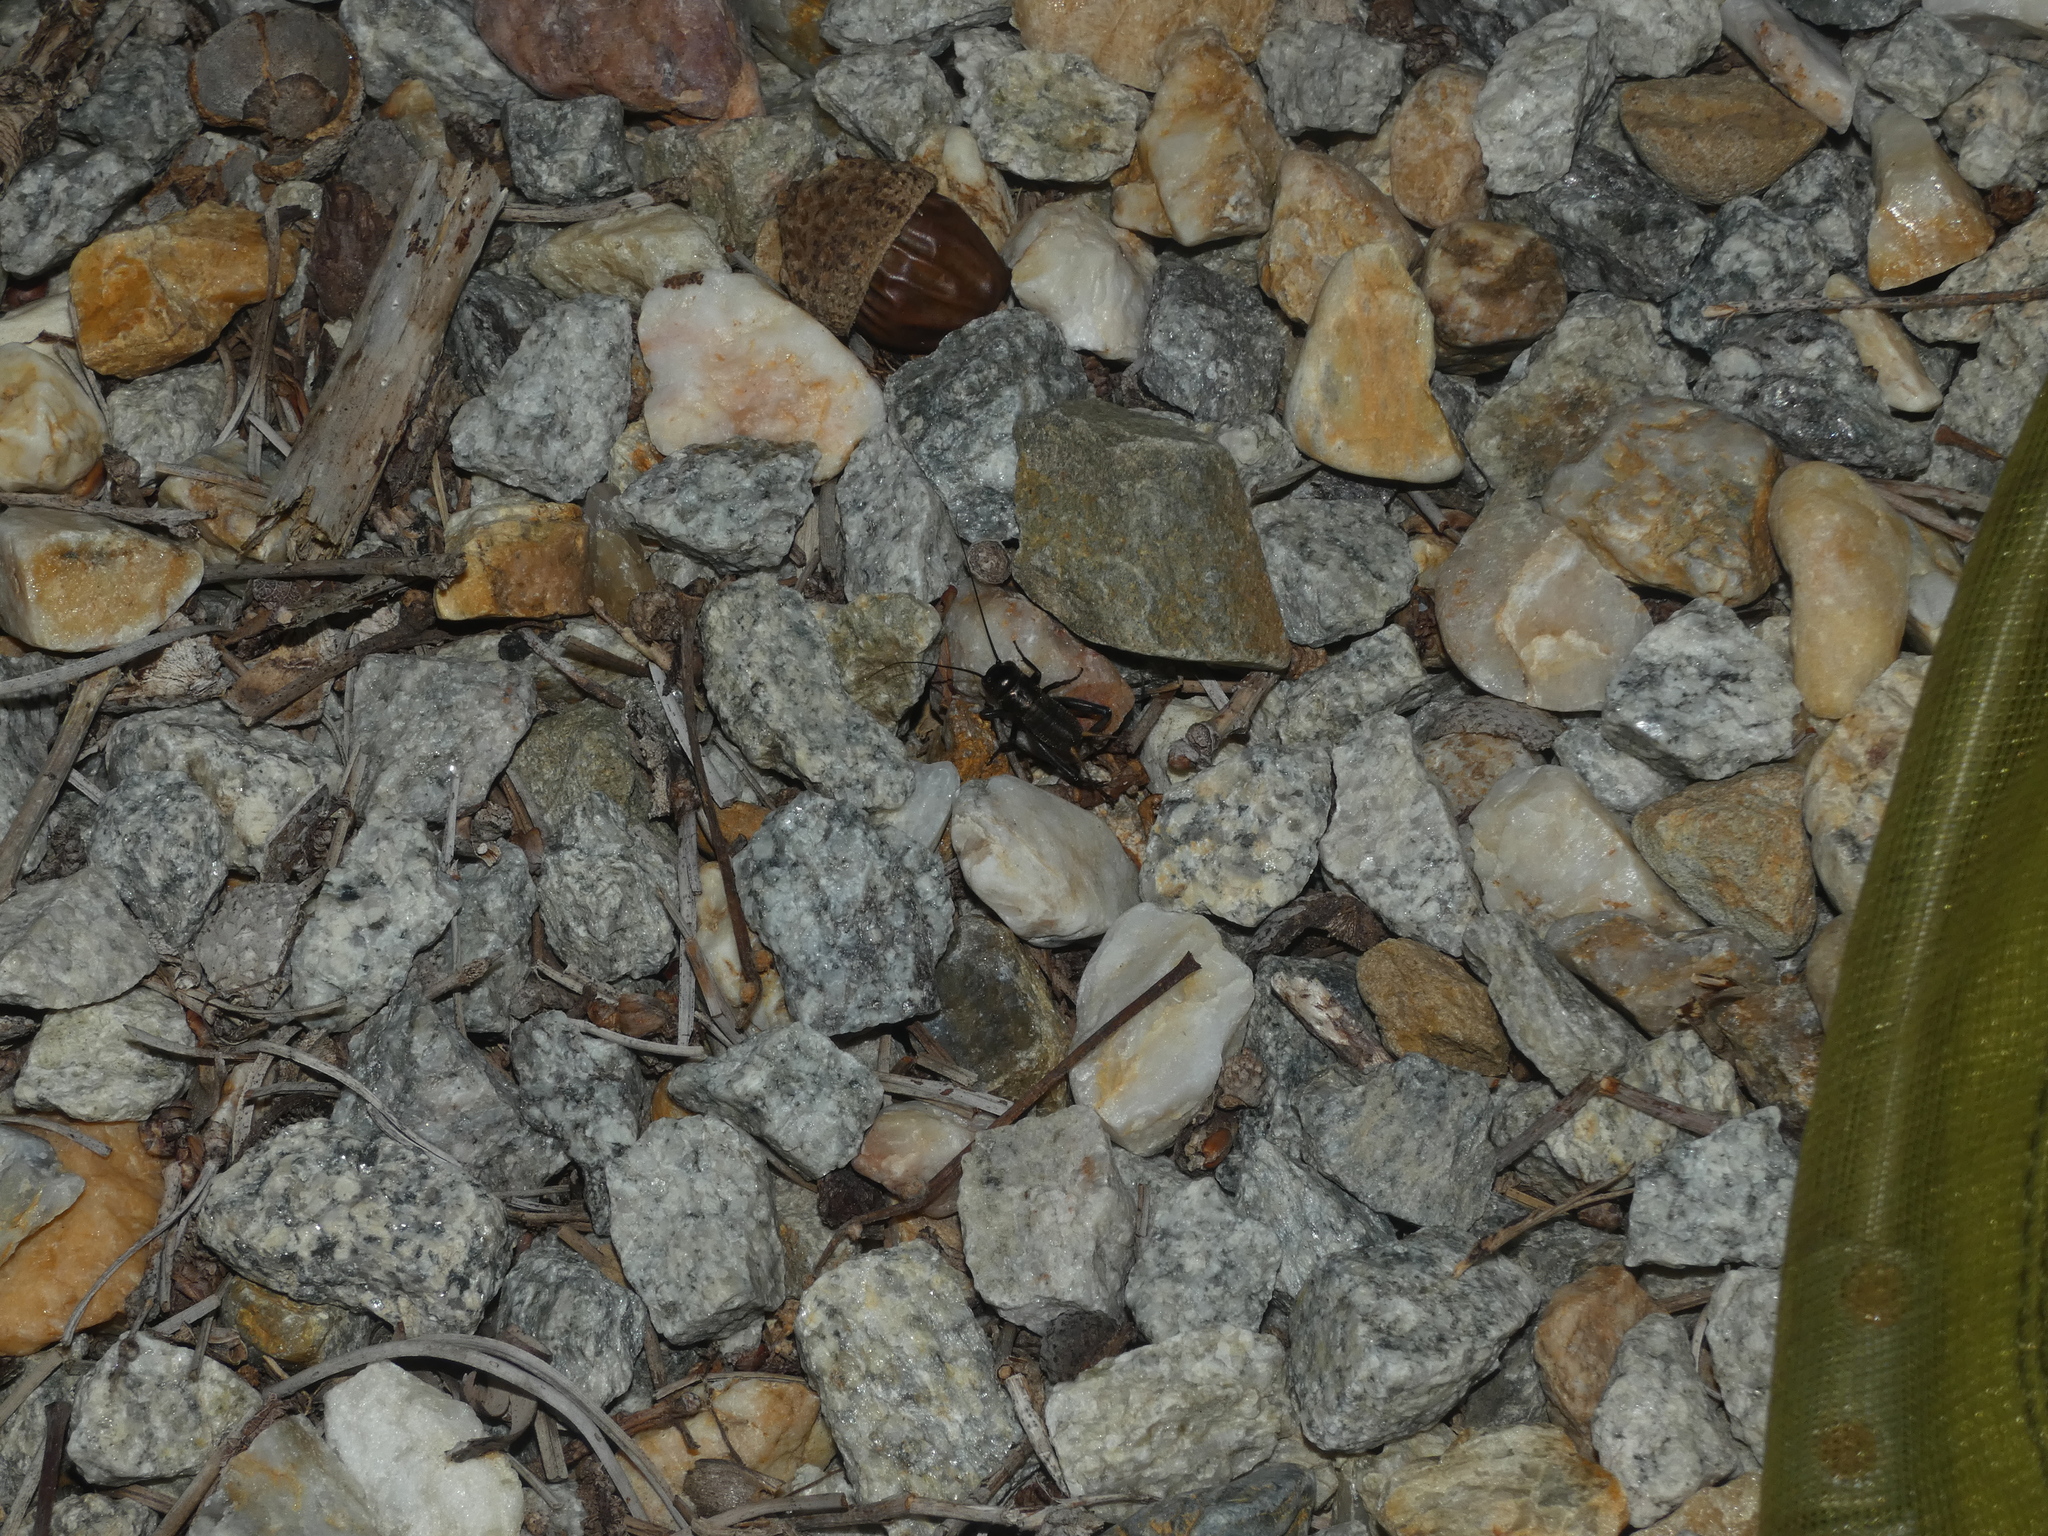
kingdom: Animalia
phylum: Arthropoda
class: Insecta
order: Orthoptera
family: Gryllidae
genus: Gryllus
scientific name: Gryllus campestris
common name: Field cricket
